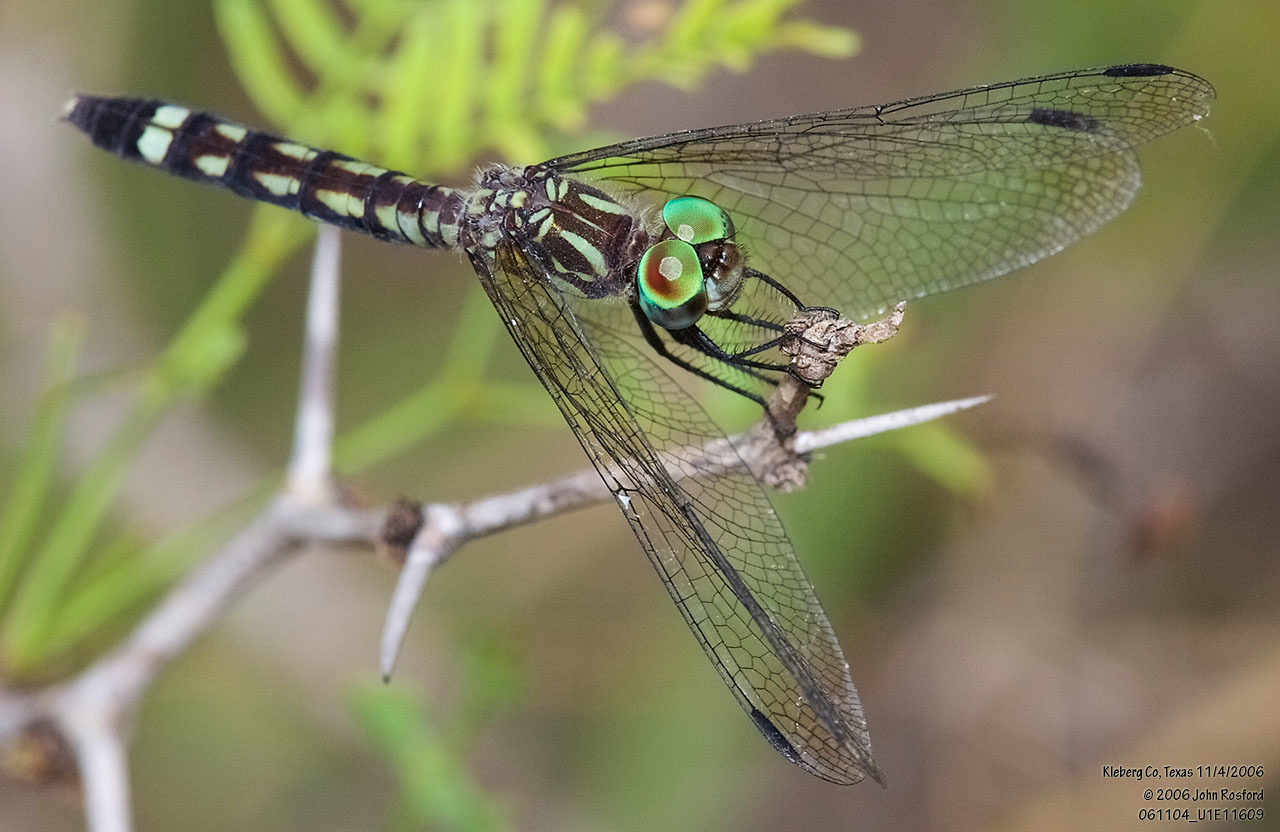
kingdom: Animalia
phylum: Arthropoda
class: Insecta
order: Odonata
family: Libellulidae
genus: Micrathyria
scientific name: Micrathyria hagenii
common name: Thornbush dasher
